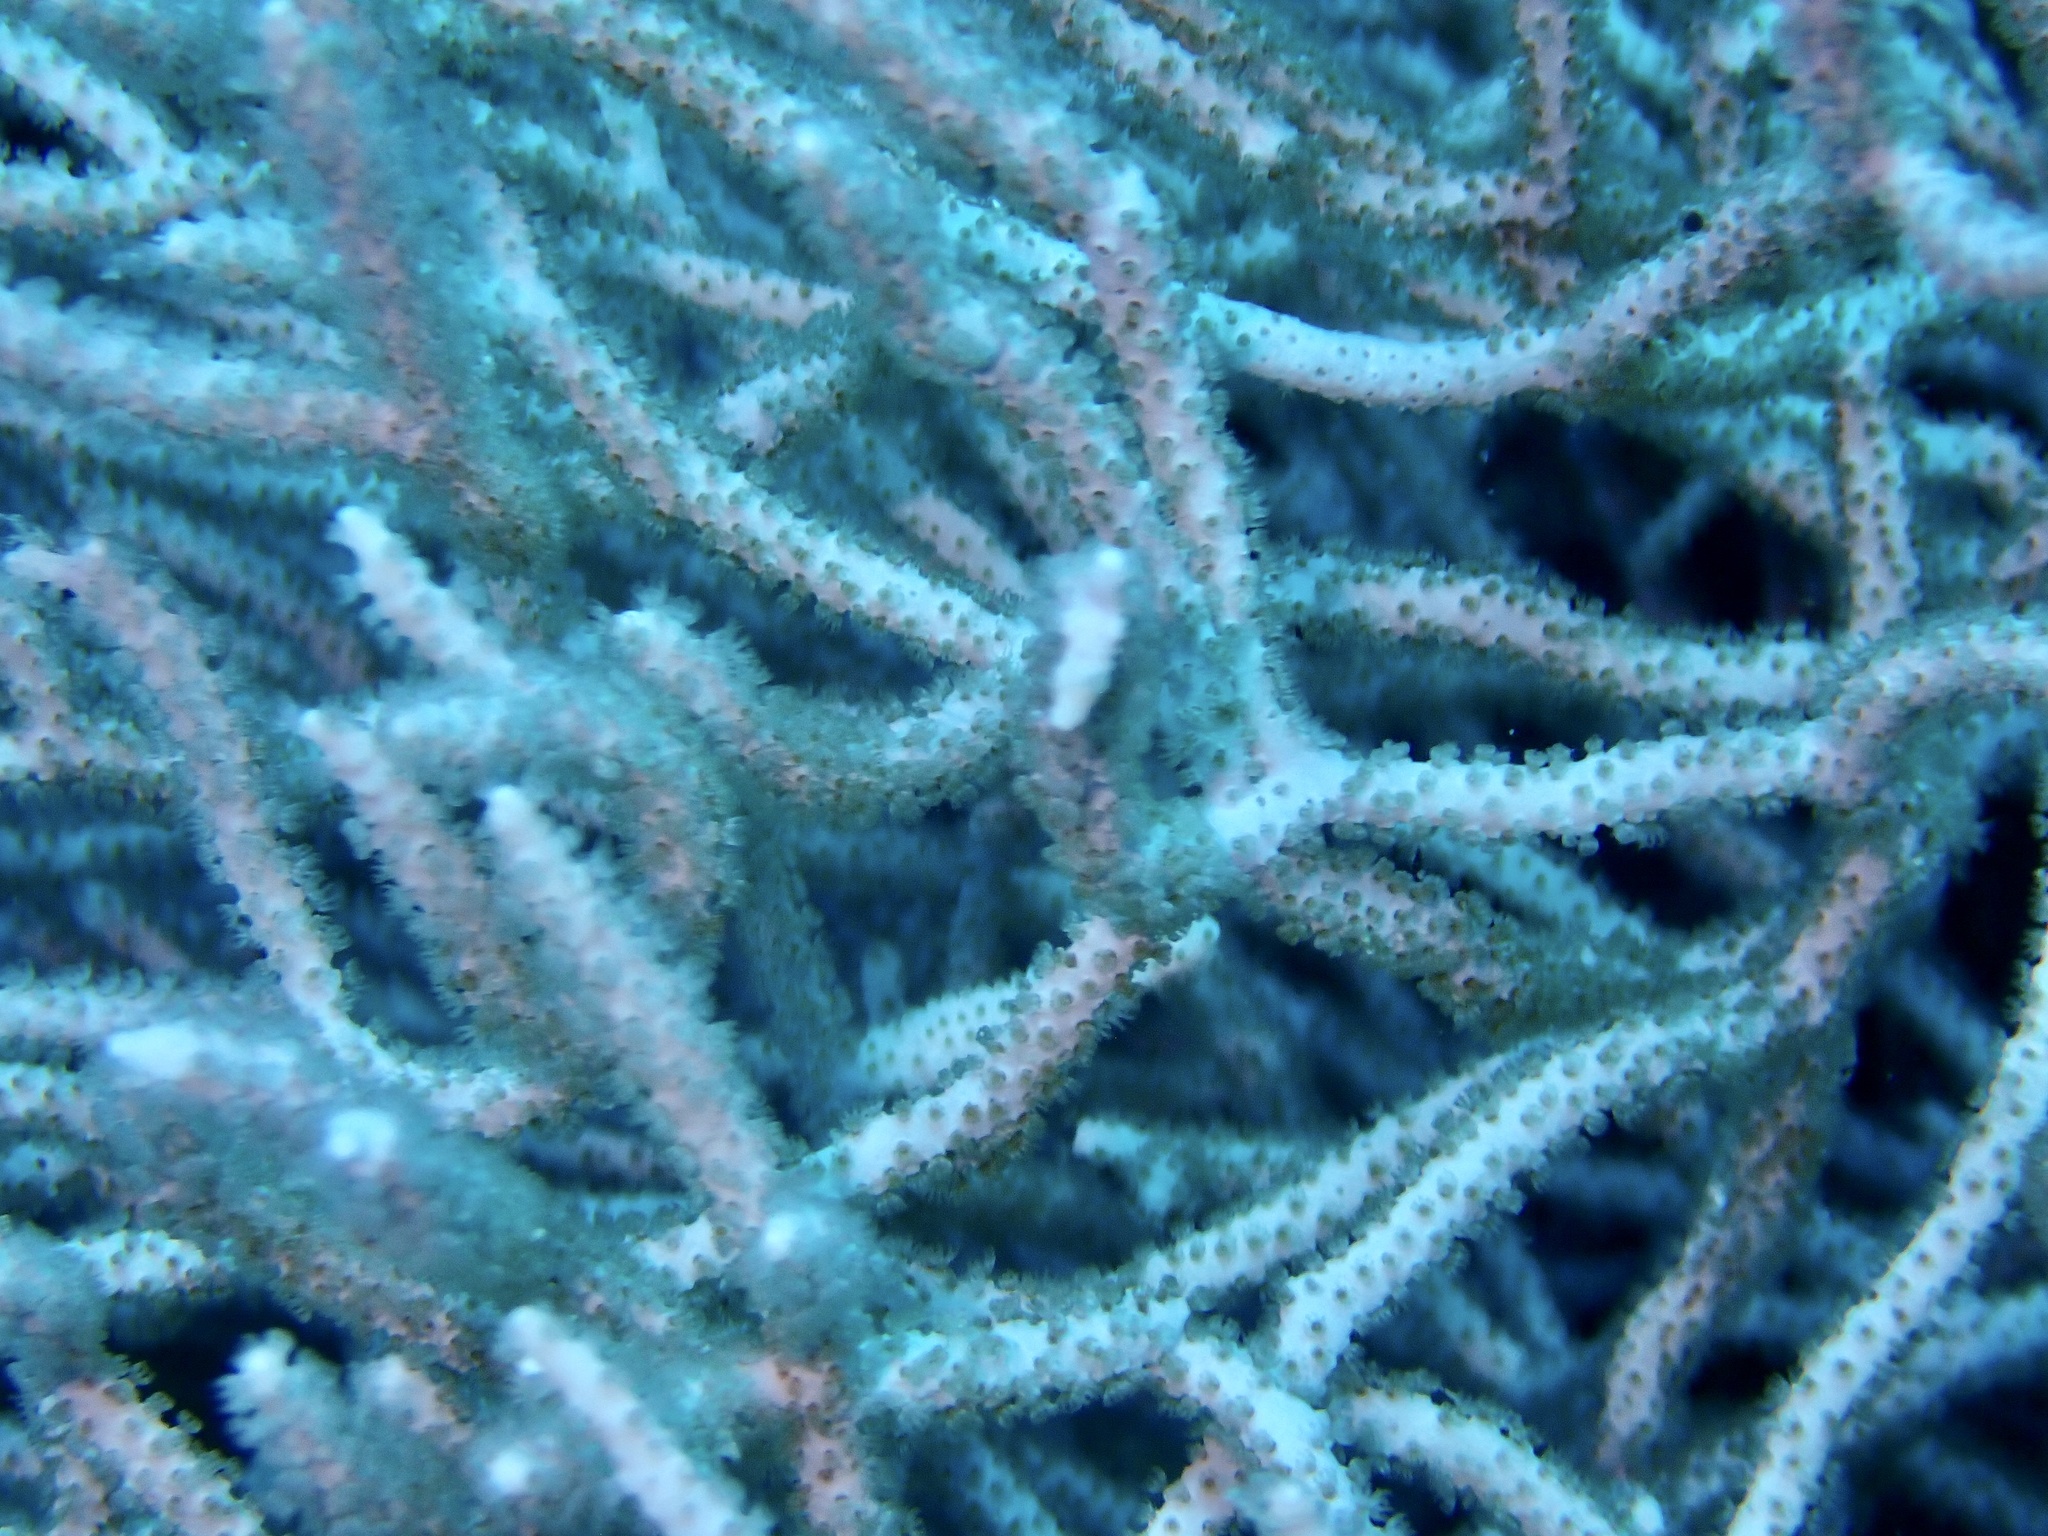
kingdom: Animalia
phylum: Cnidaria
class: Anthozoa
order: Malacalcyonacea
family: Melithaeidae
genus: Melithaea
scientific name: Melithaea rubrinodis
